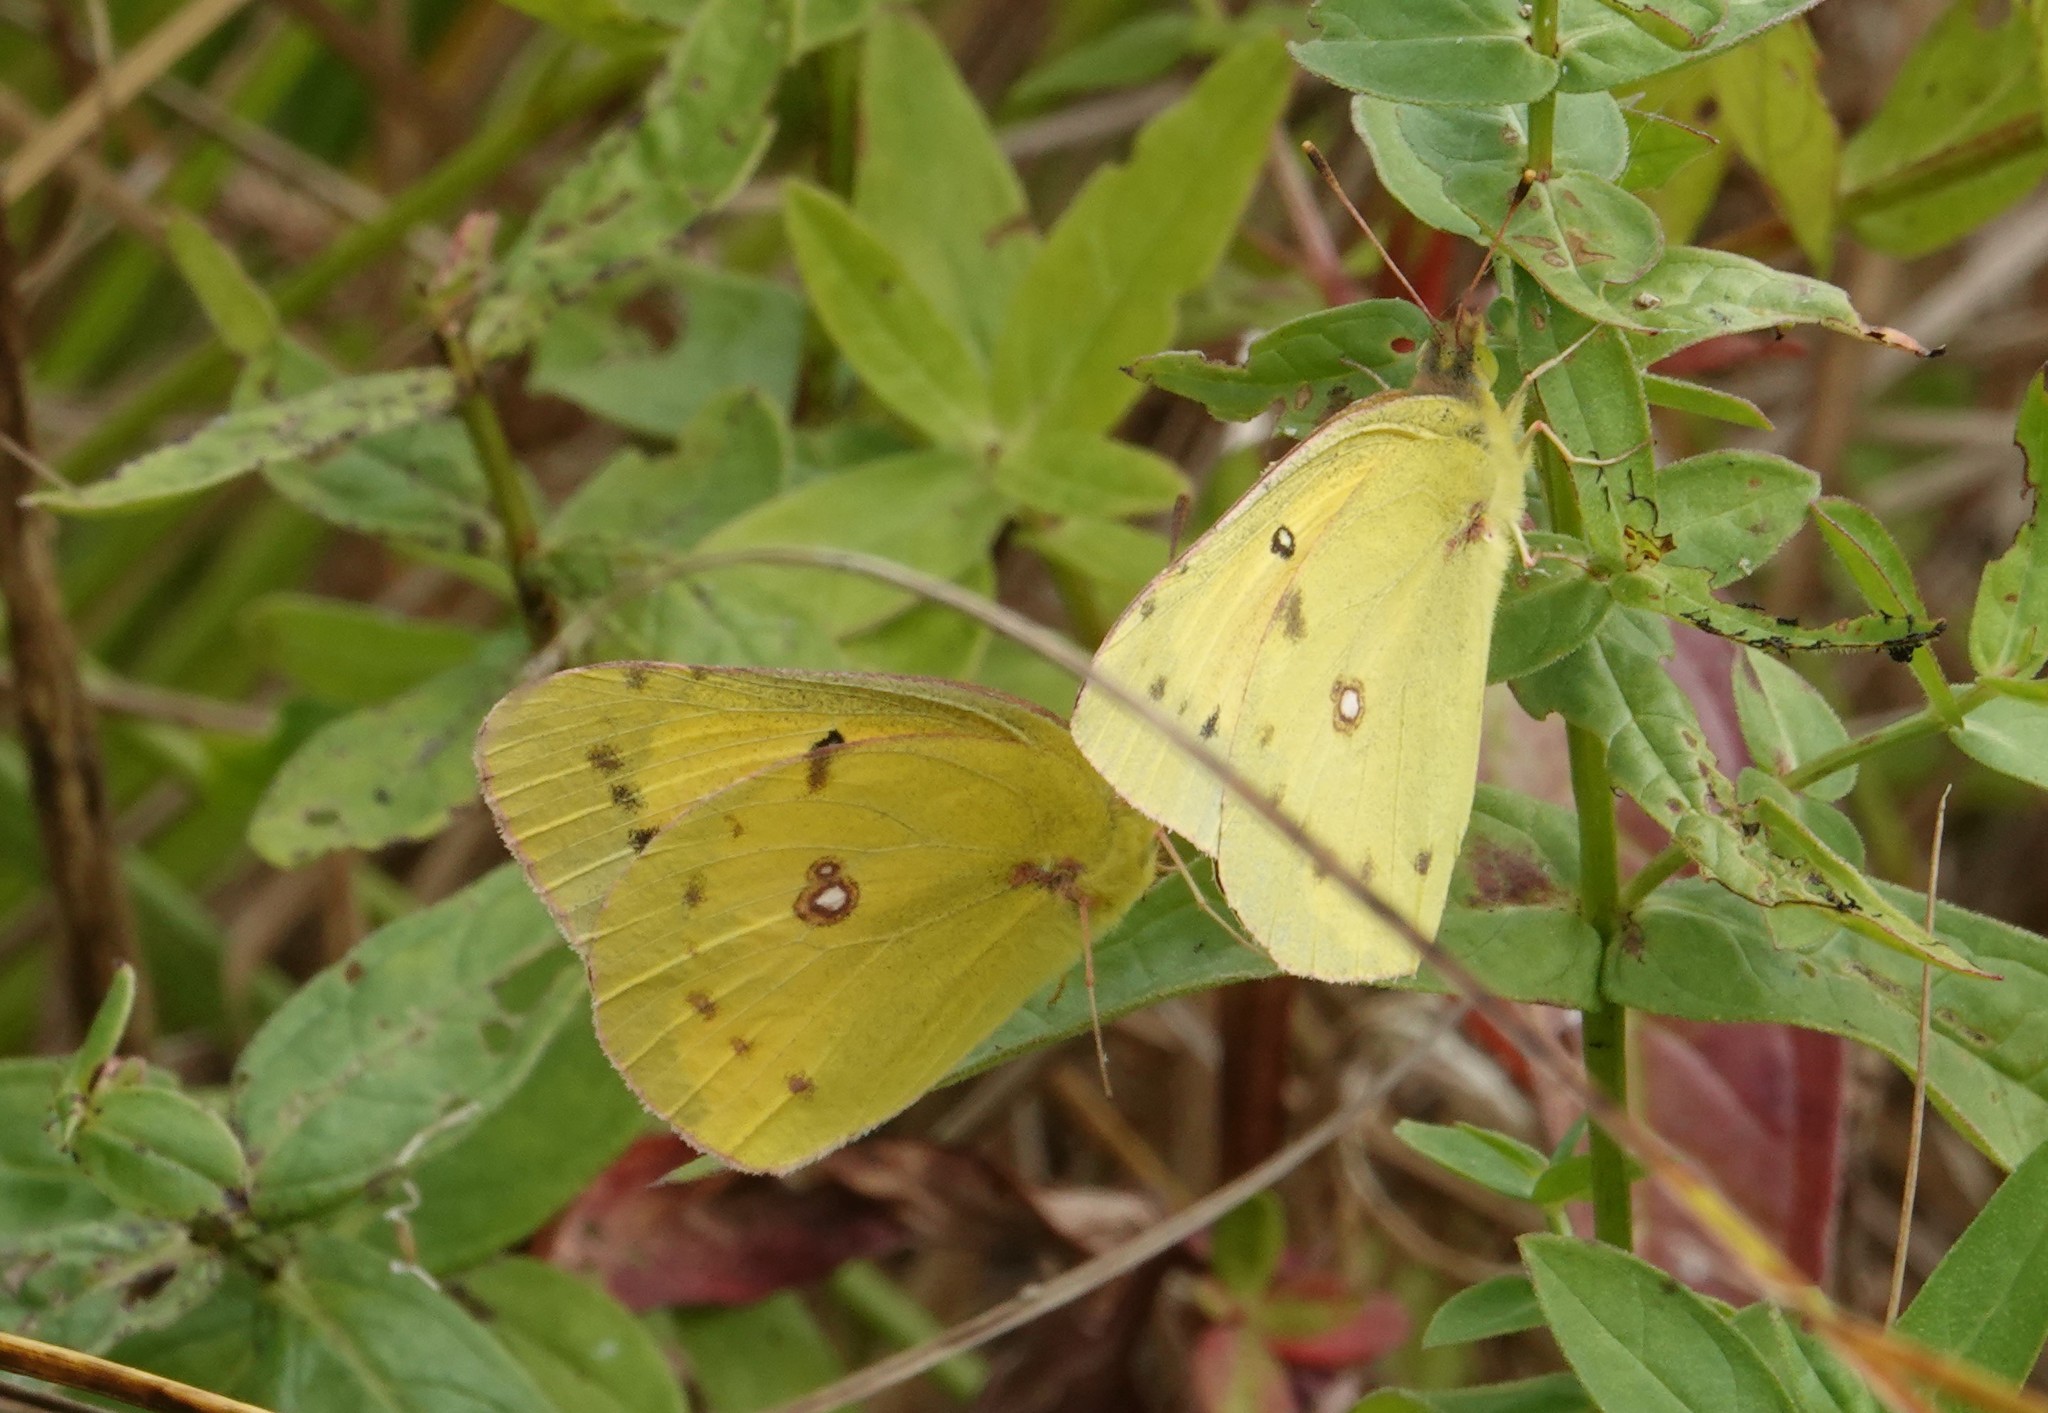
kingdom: Animalia
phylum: Arthropoda
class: Insecta
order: Lepidoptera
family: Pieridae
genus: Colias
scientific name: Colias eurytheme
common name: Alfalfa butterfly
